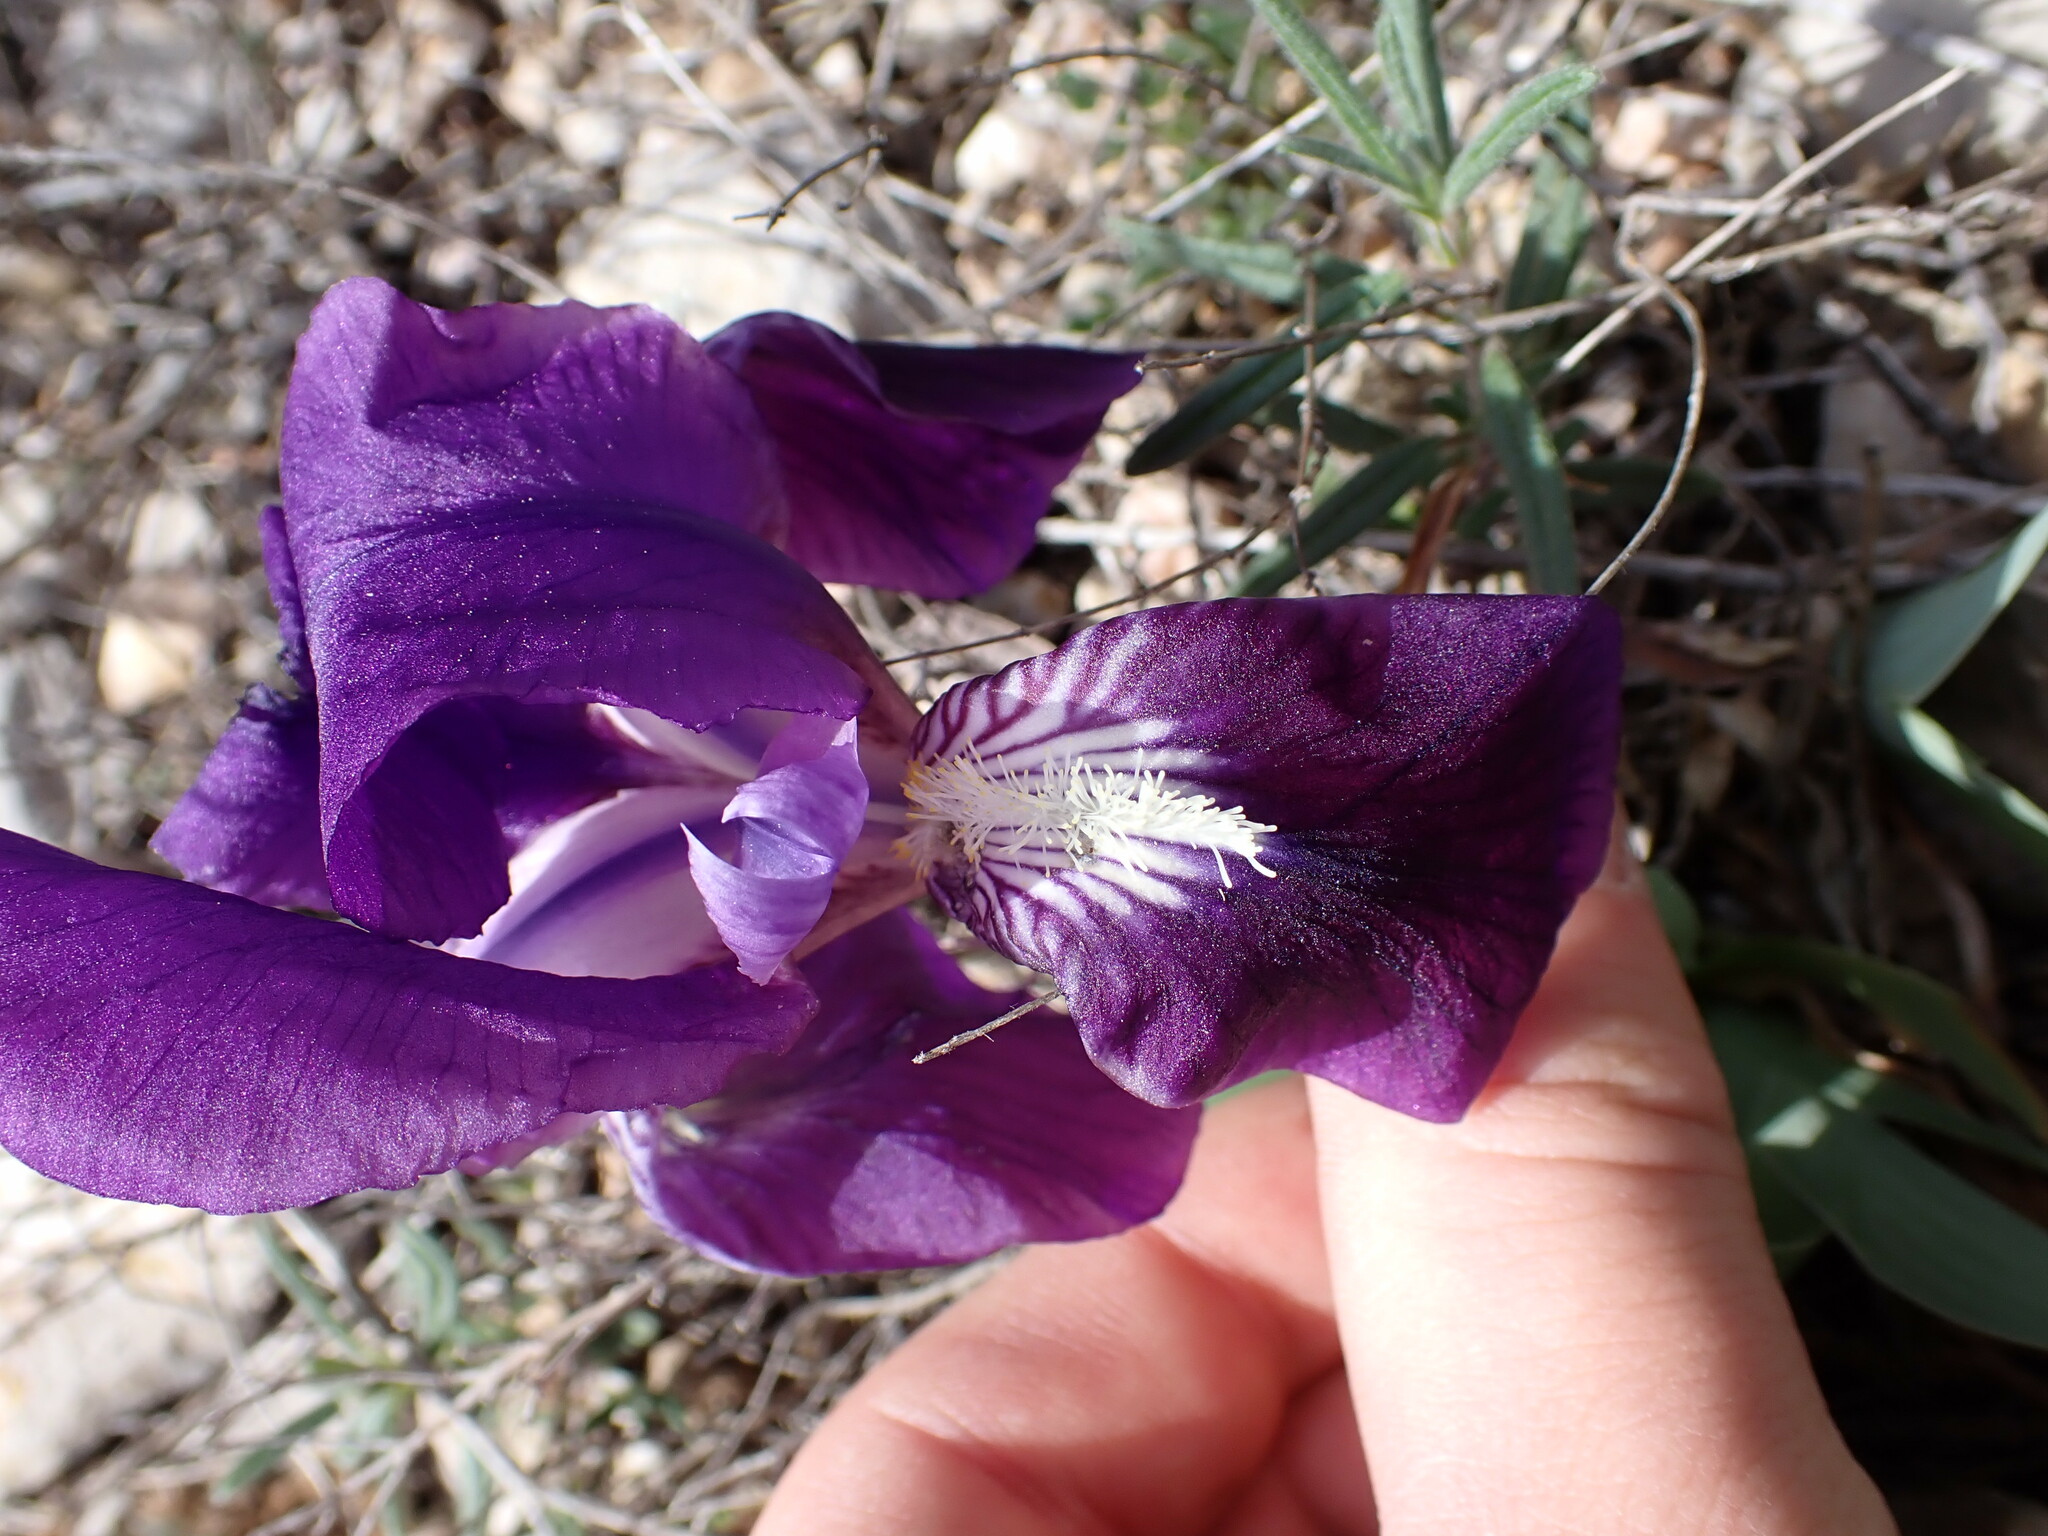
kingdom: Plantae
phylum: Tracheophyta
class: Liliopsida
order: Asparagales
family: Iridaceae
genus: Iris
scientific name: Iris lutescens
